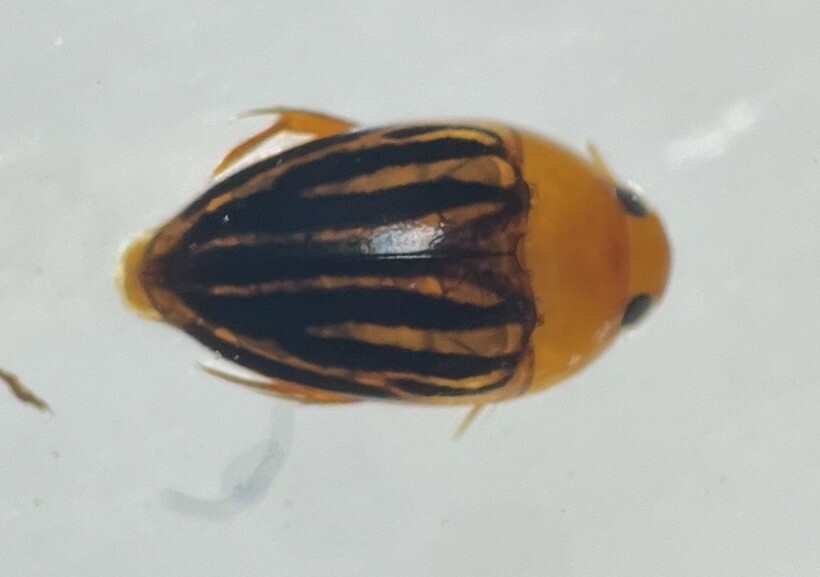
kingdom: Animalia
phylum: Arthropoda
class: Insecta
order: Coleoptera
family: Noteridae
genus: Suphisellus
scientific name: Suphisellus lineatus
